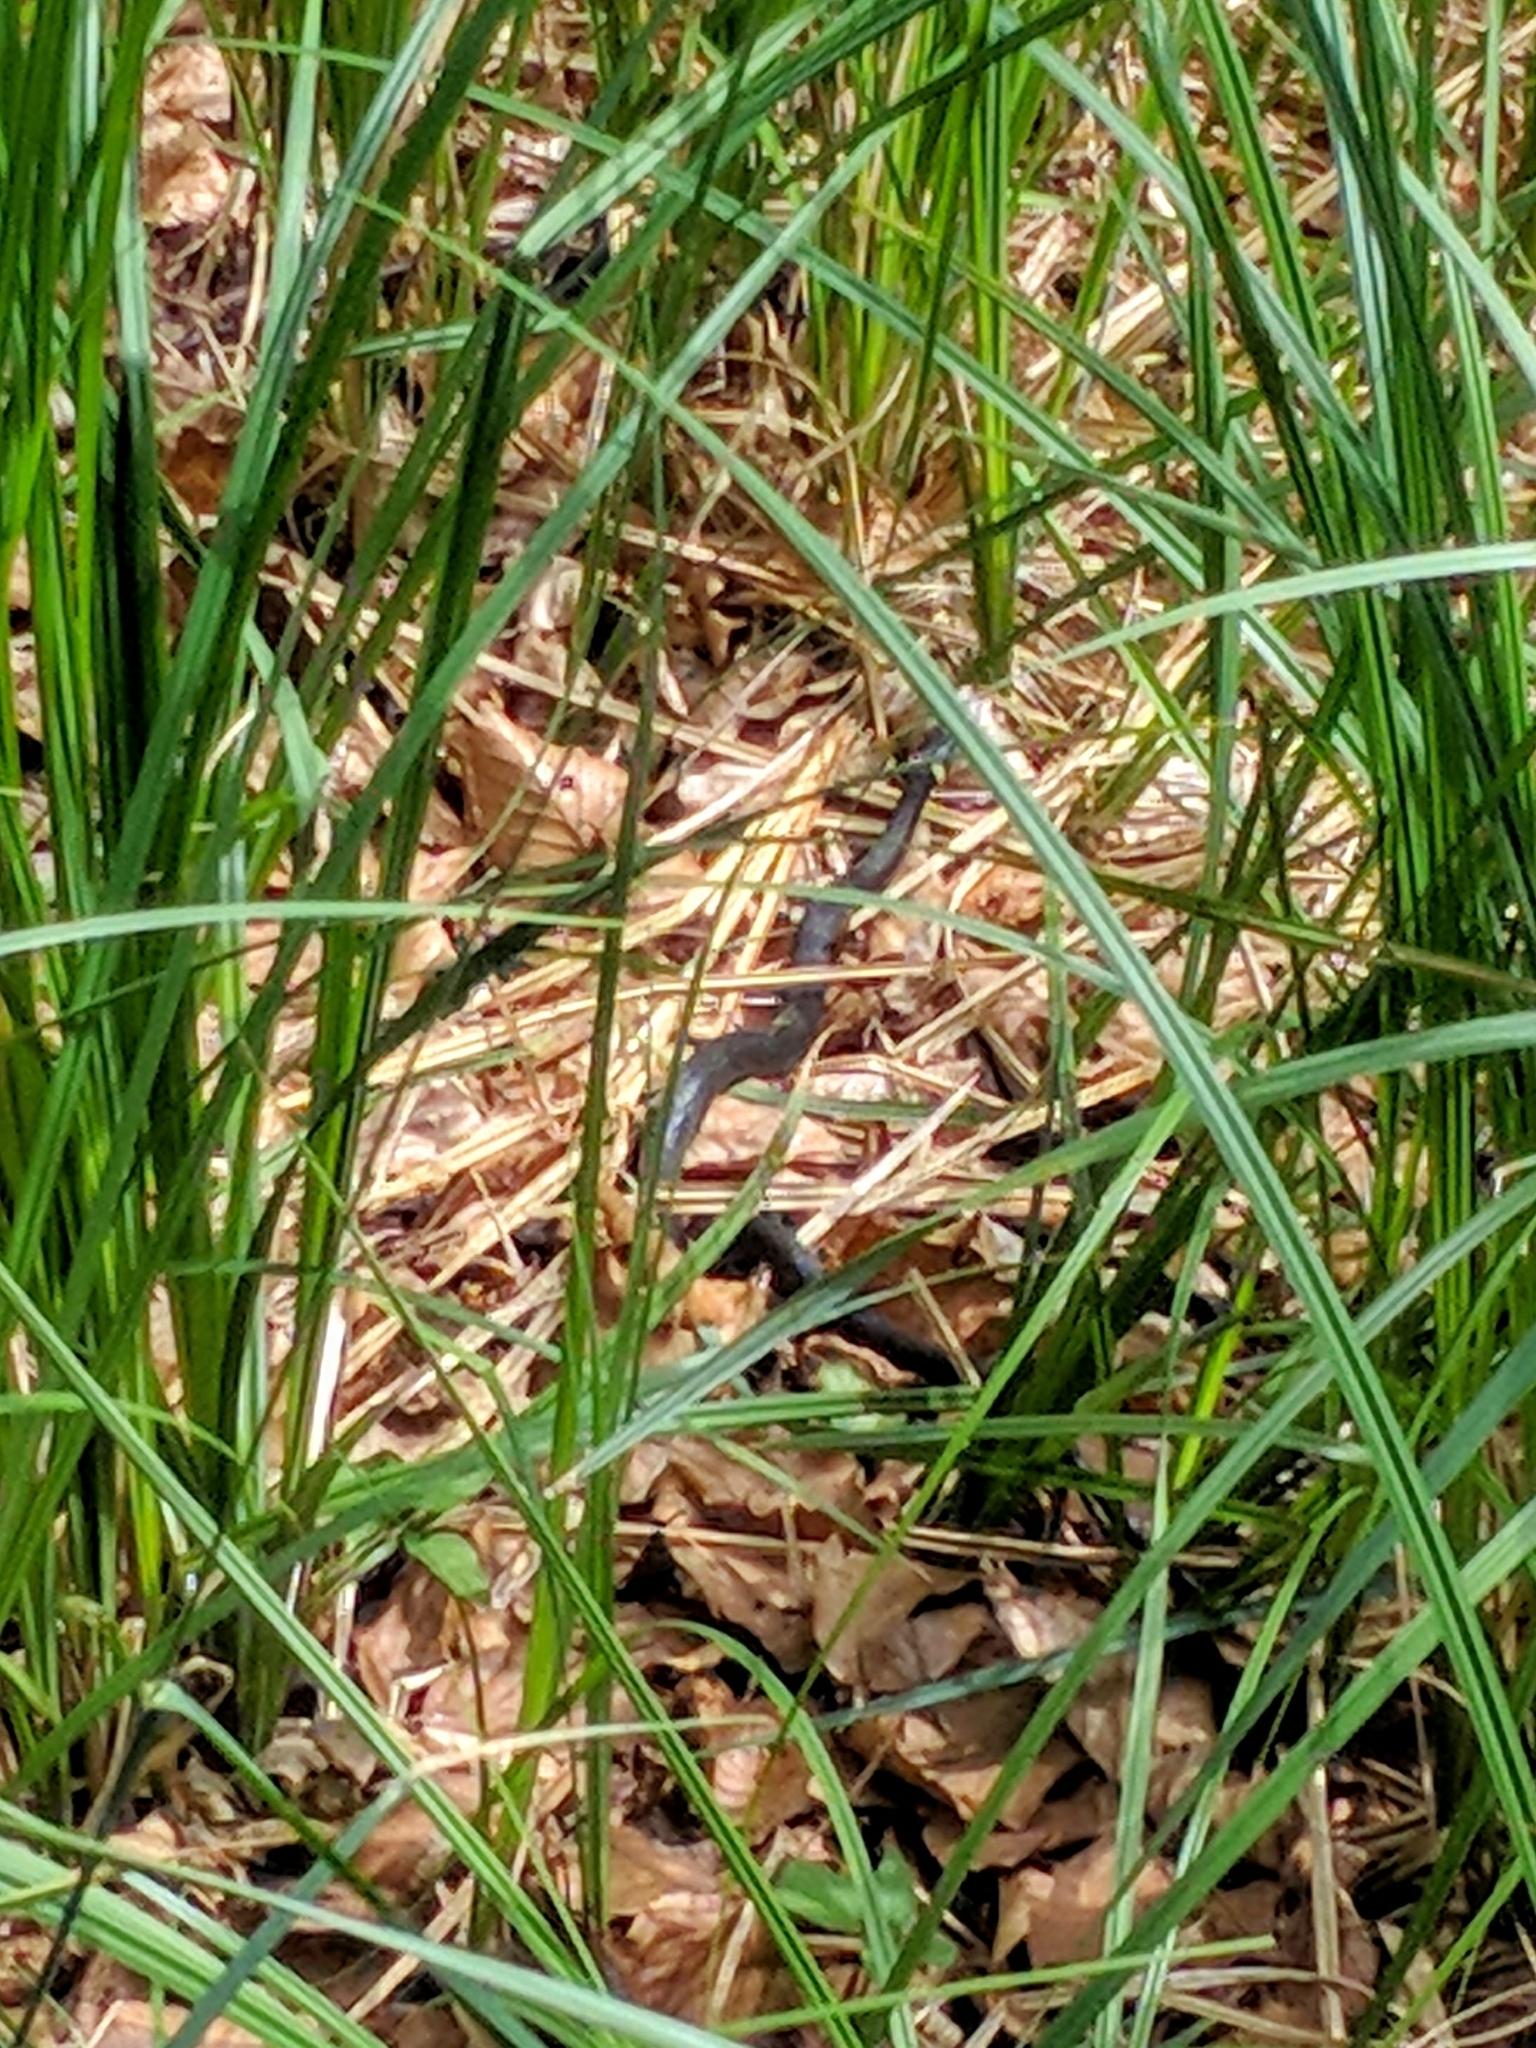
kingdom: Animalia
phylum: Chordata
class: Squamata
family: Colubridae
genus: Natrix
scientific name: Natrix natrix
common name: Grass snake
